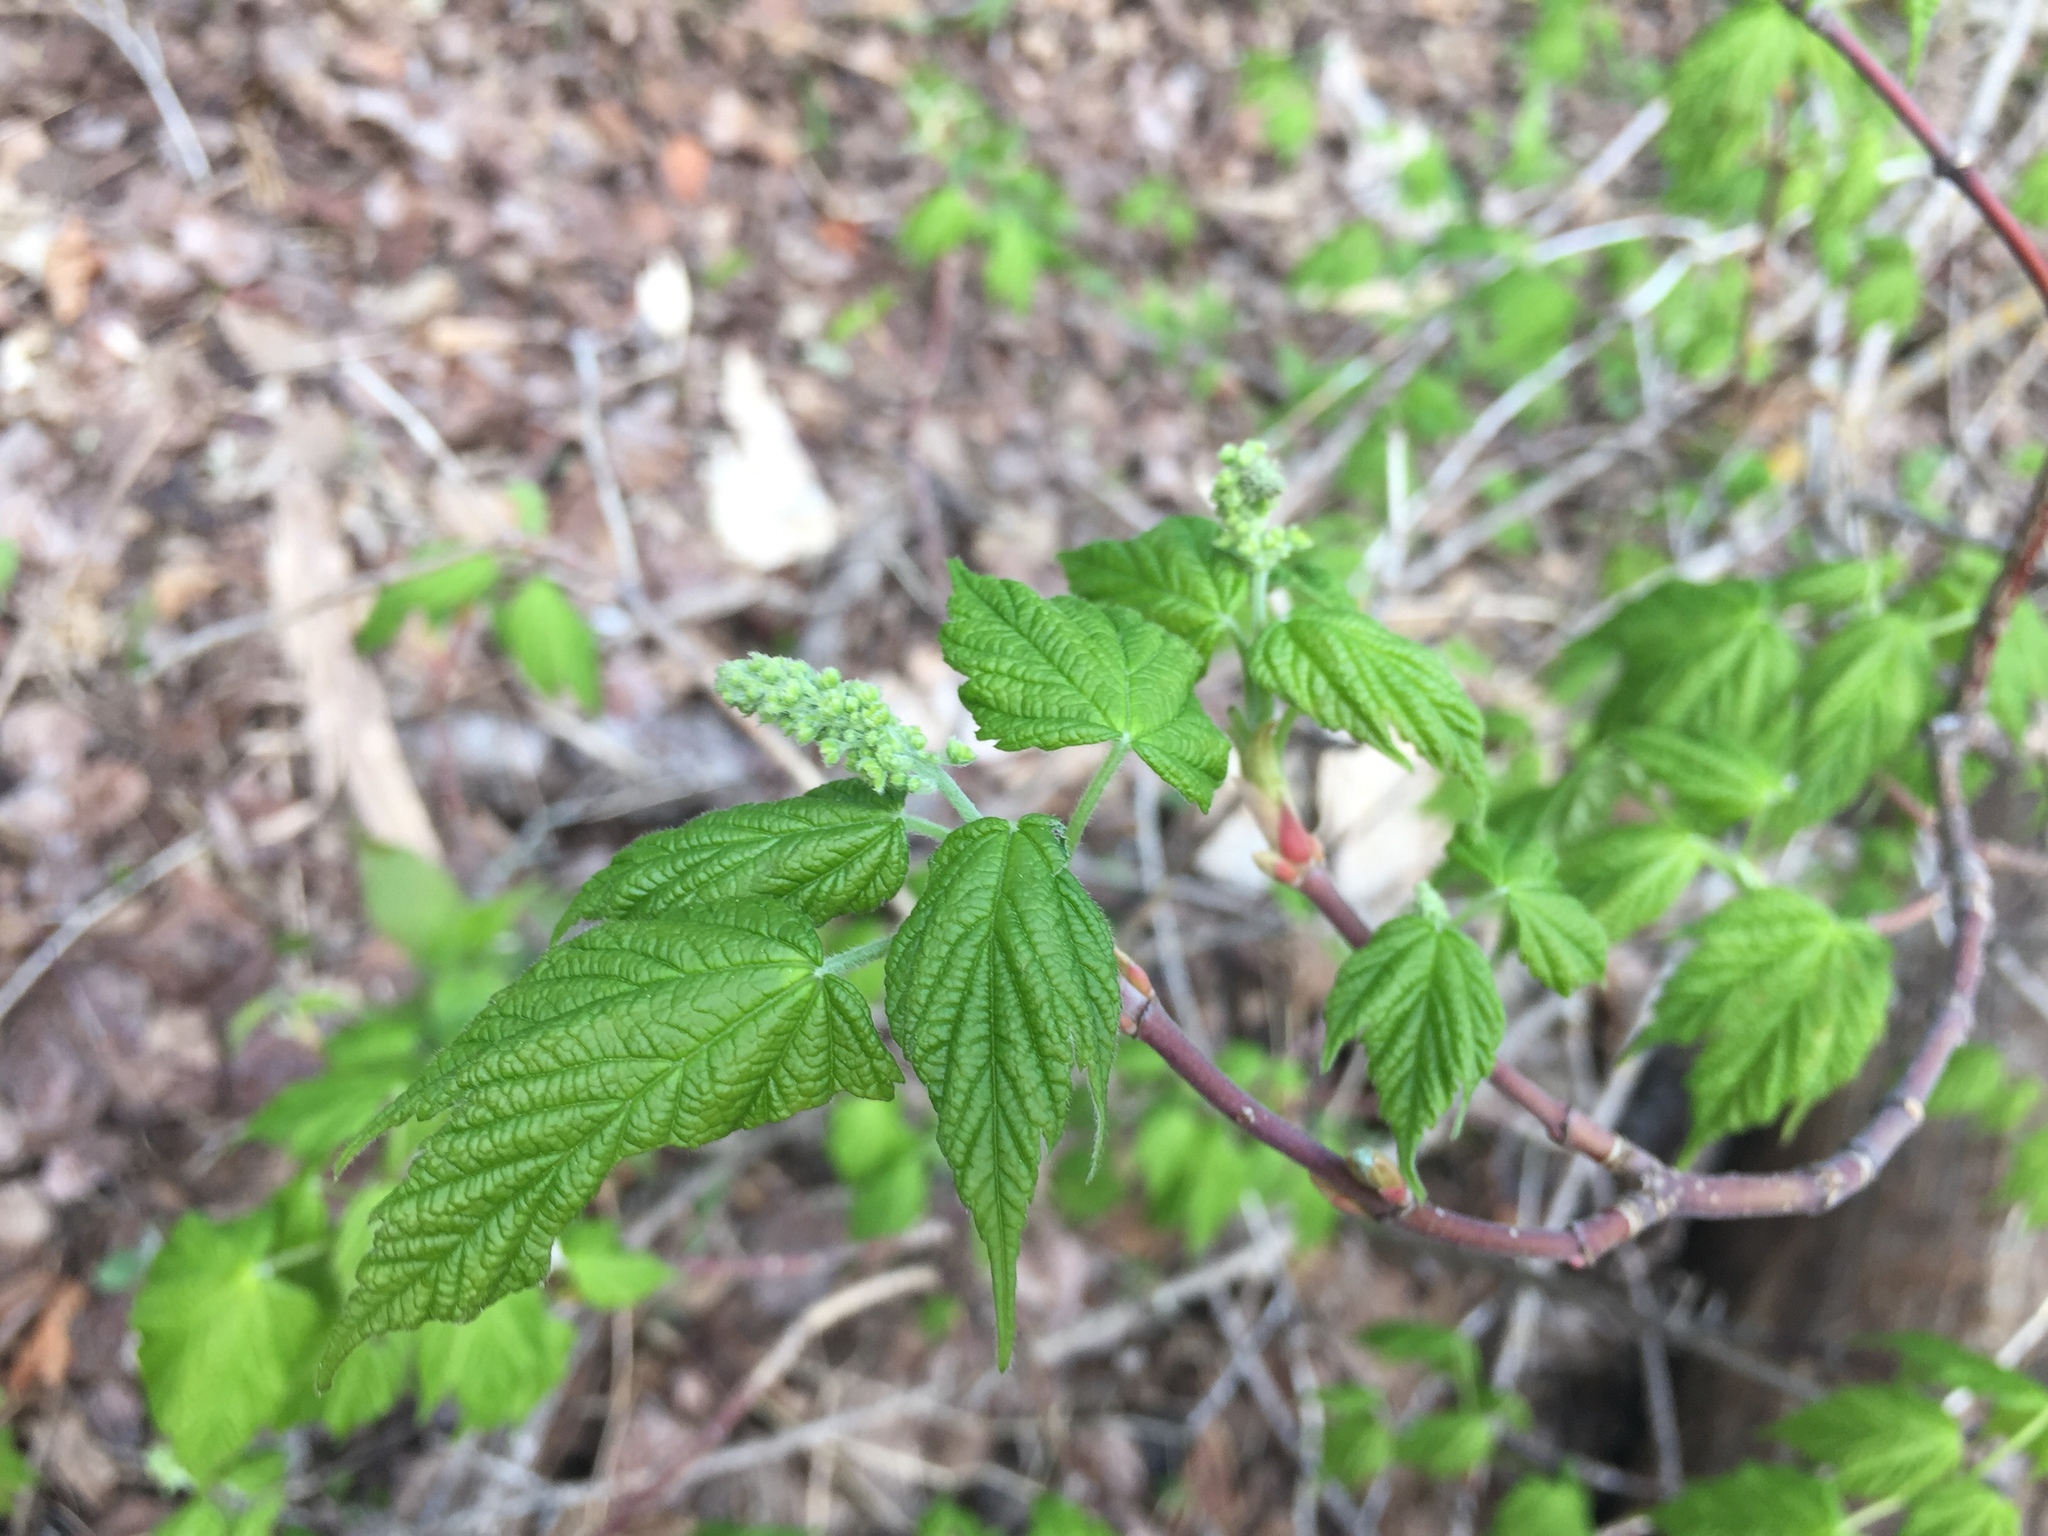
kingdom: Plantae
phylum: Tracheophyta
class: Magnoliopsida
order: Sapindales
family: Sapindaceae
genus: Acer
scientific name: Acer spicatum
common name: Mountain maple
